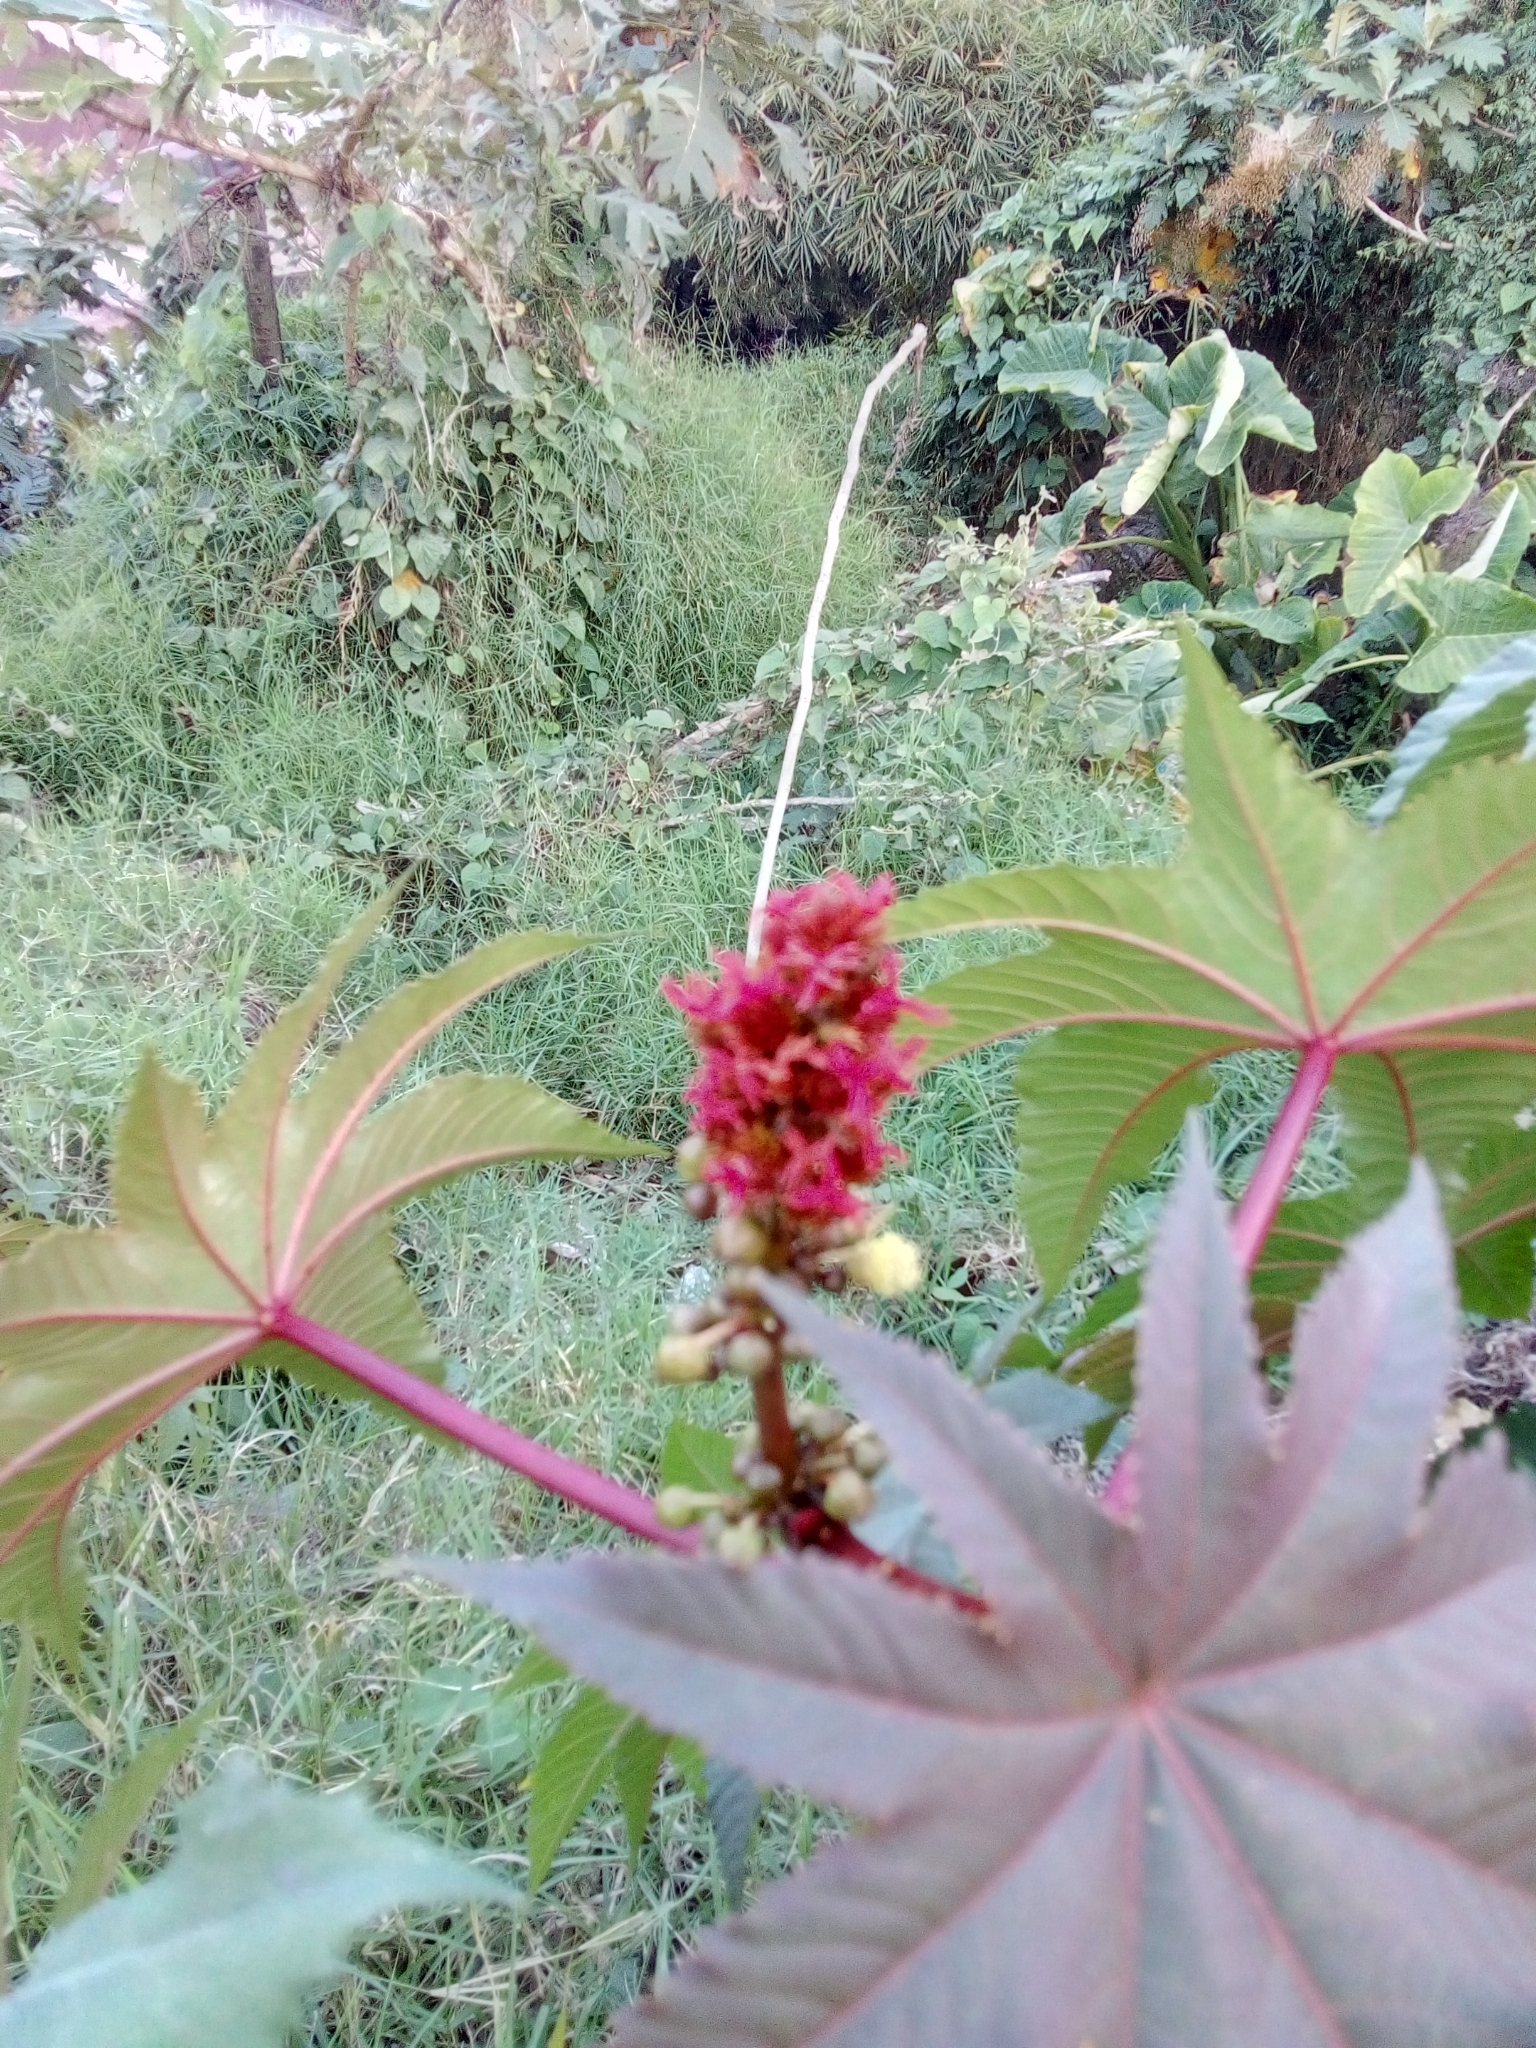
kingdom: Plantae
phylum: Tracheophyta
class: Magnoliopsida
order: Malpighiales
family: Euphorbiaceae
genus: Ricinus
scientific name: Ricinus communis
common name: Castor-oil-plant
